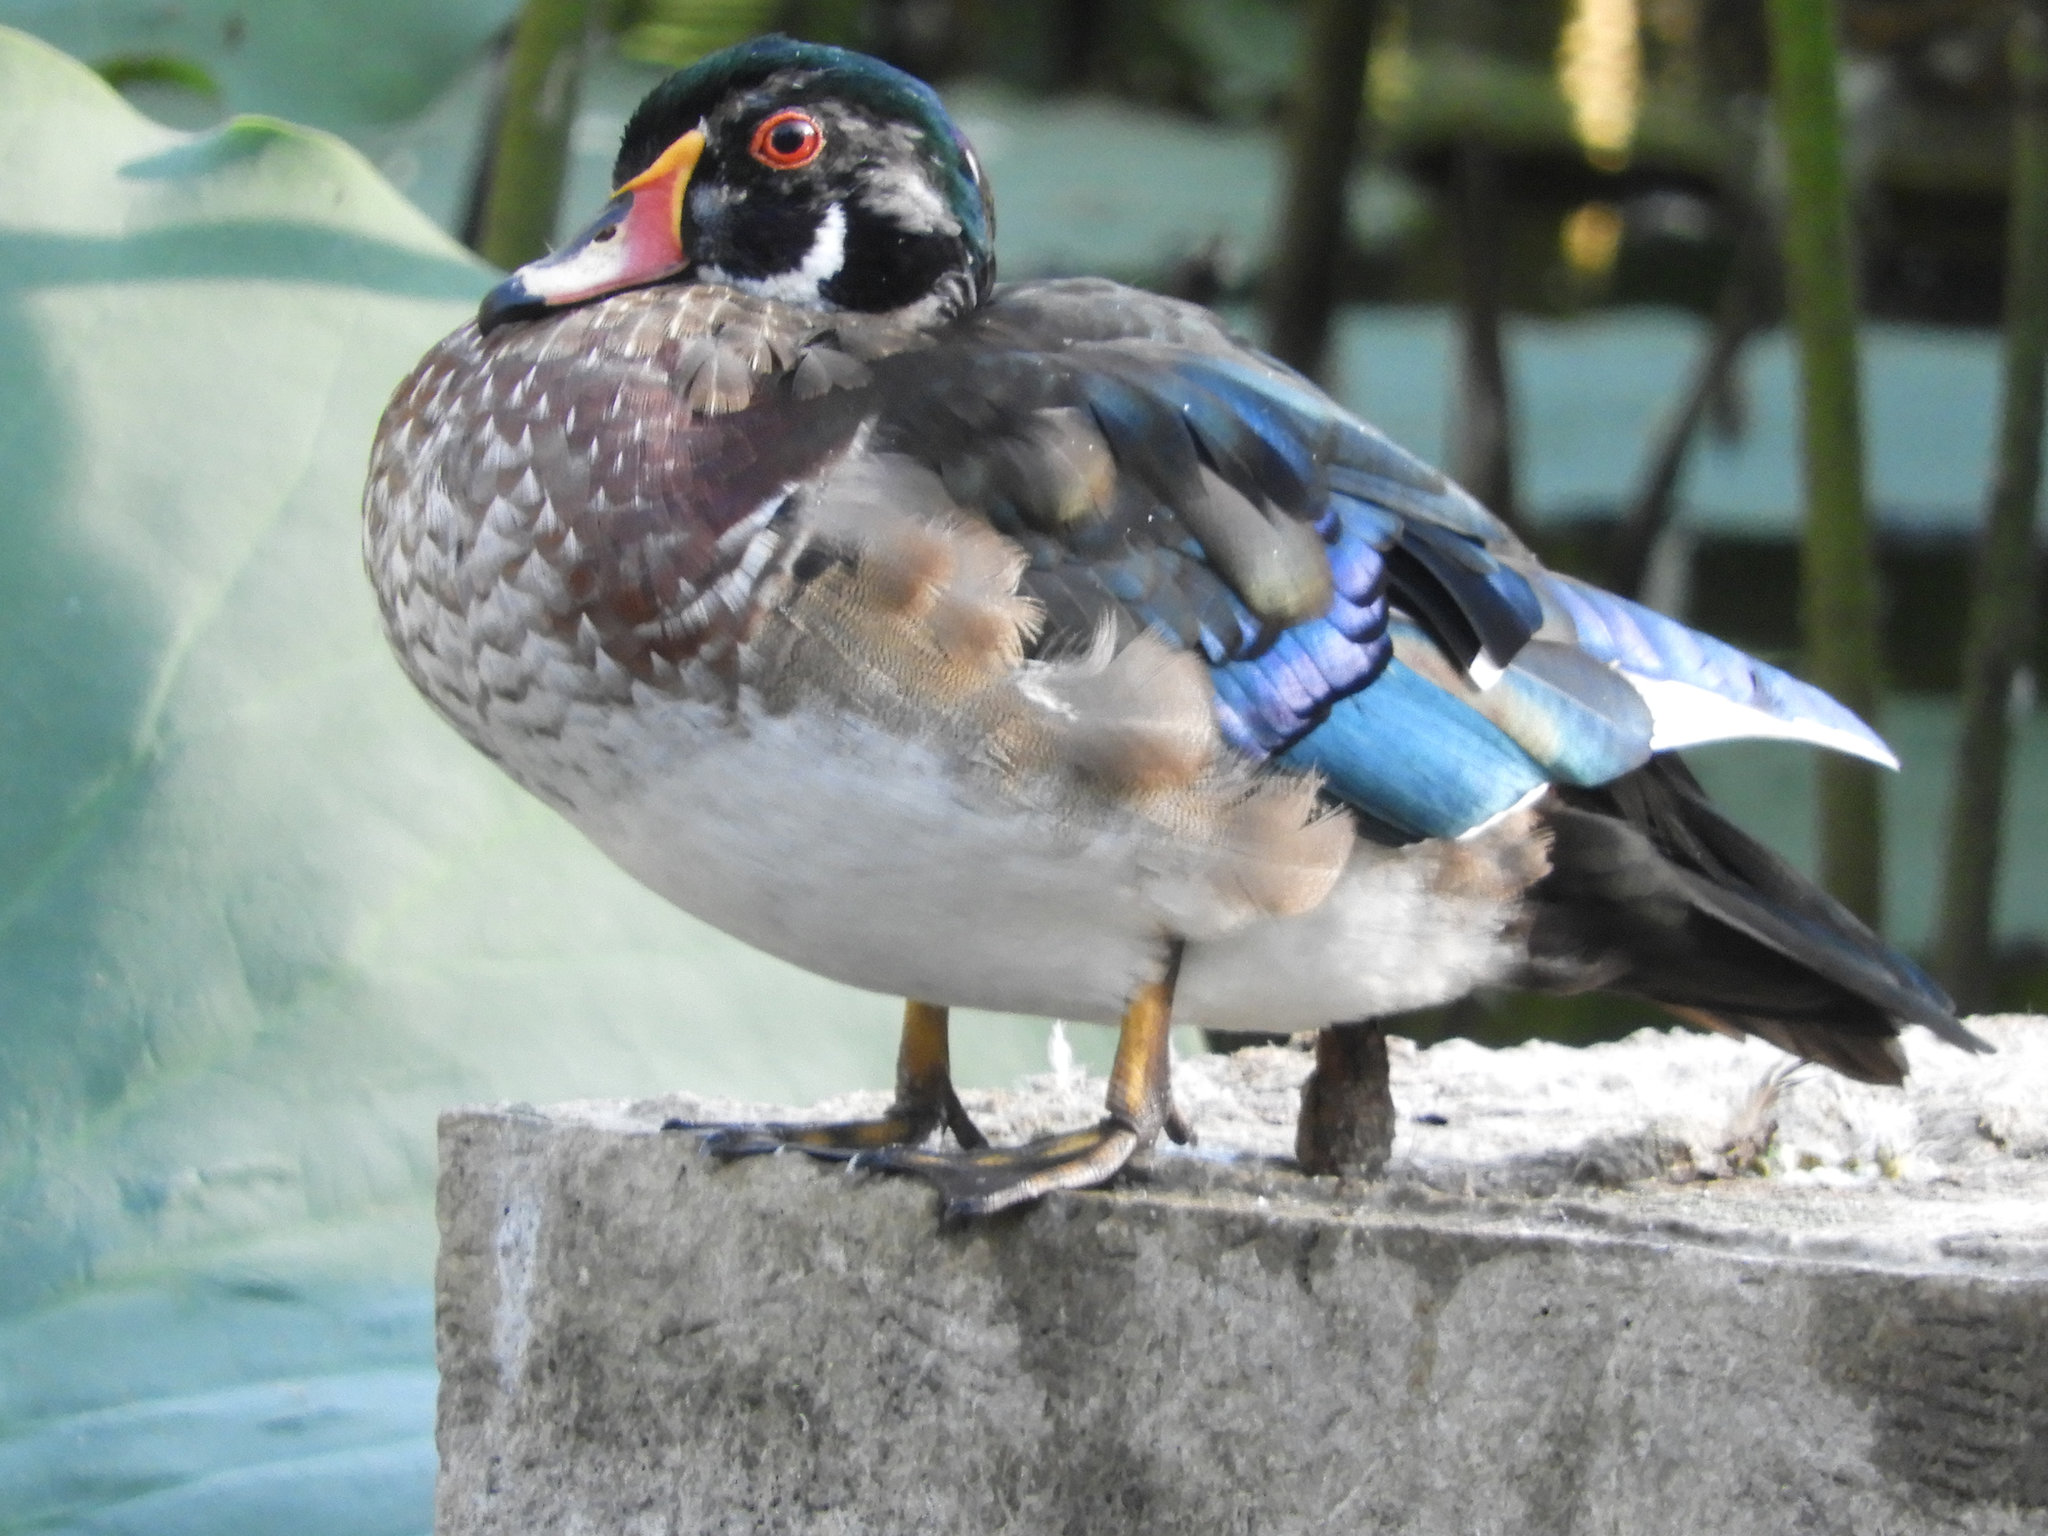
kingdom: Animalia
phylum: Chordata
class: Aves
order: Anseriformes
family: Anatidae
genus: Aix
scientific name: Aix sponsa
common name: Wood duck
